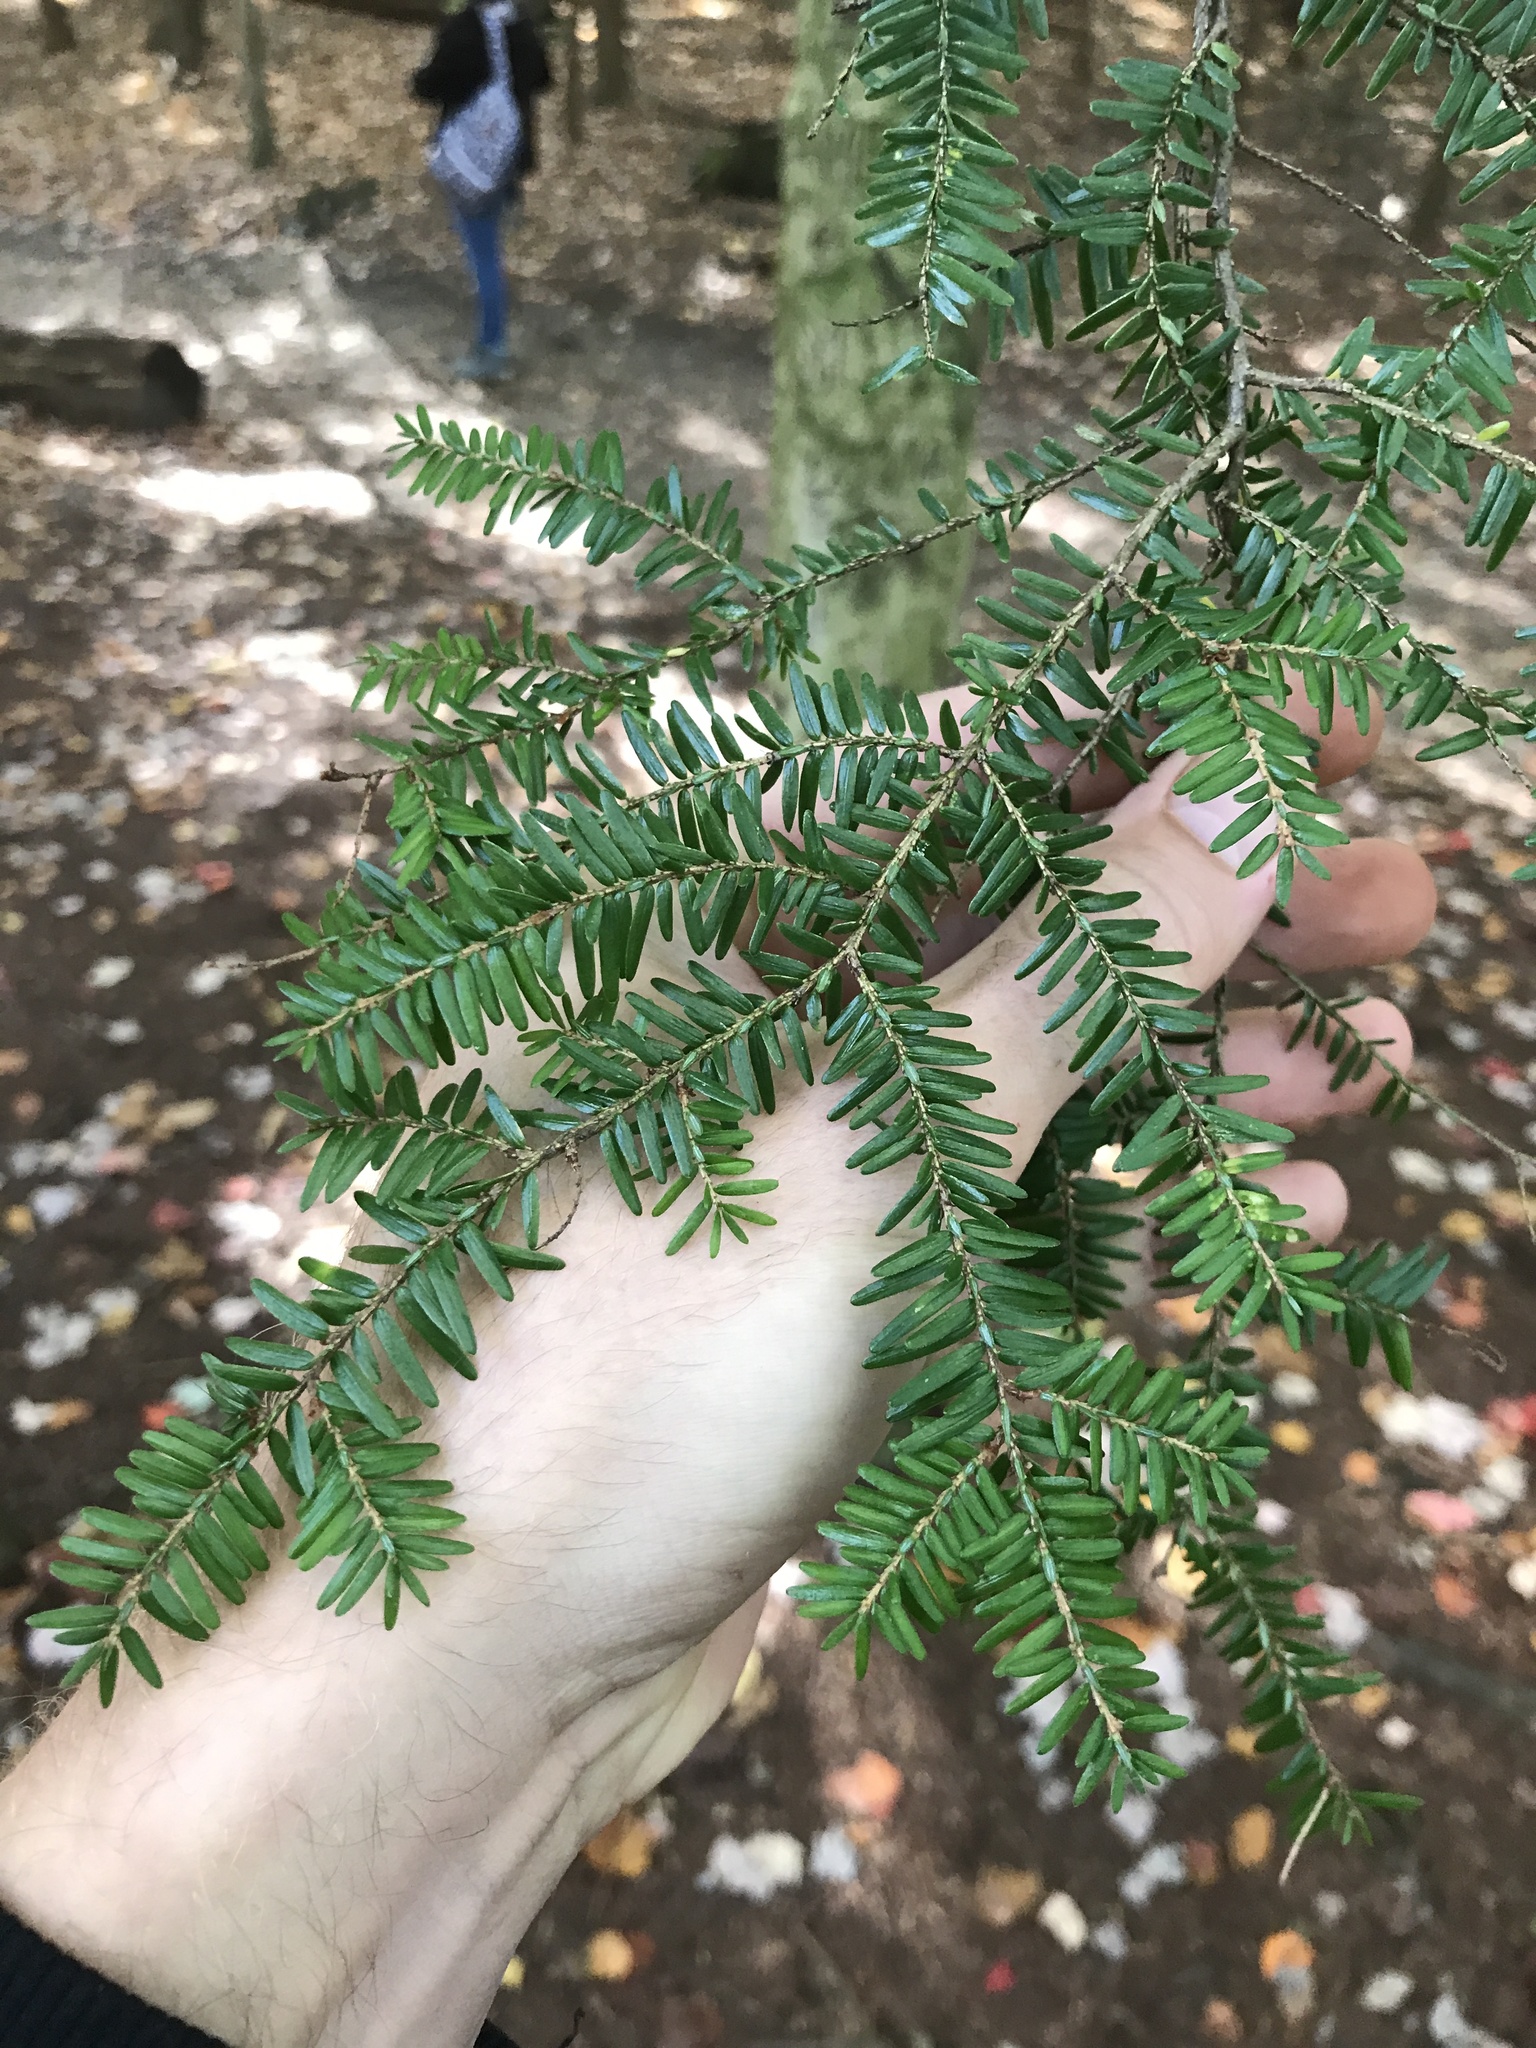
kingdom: Plantae
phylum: Tracheophyta
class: Pinopsida
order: Pinales
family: Pinaceae
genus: Tsuga
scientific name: Tsuga canadensis
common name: Eastern hemlock
